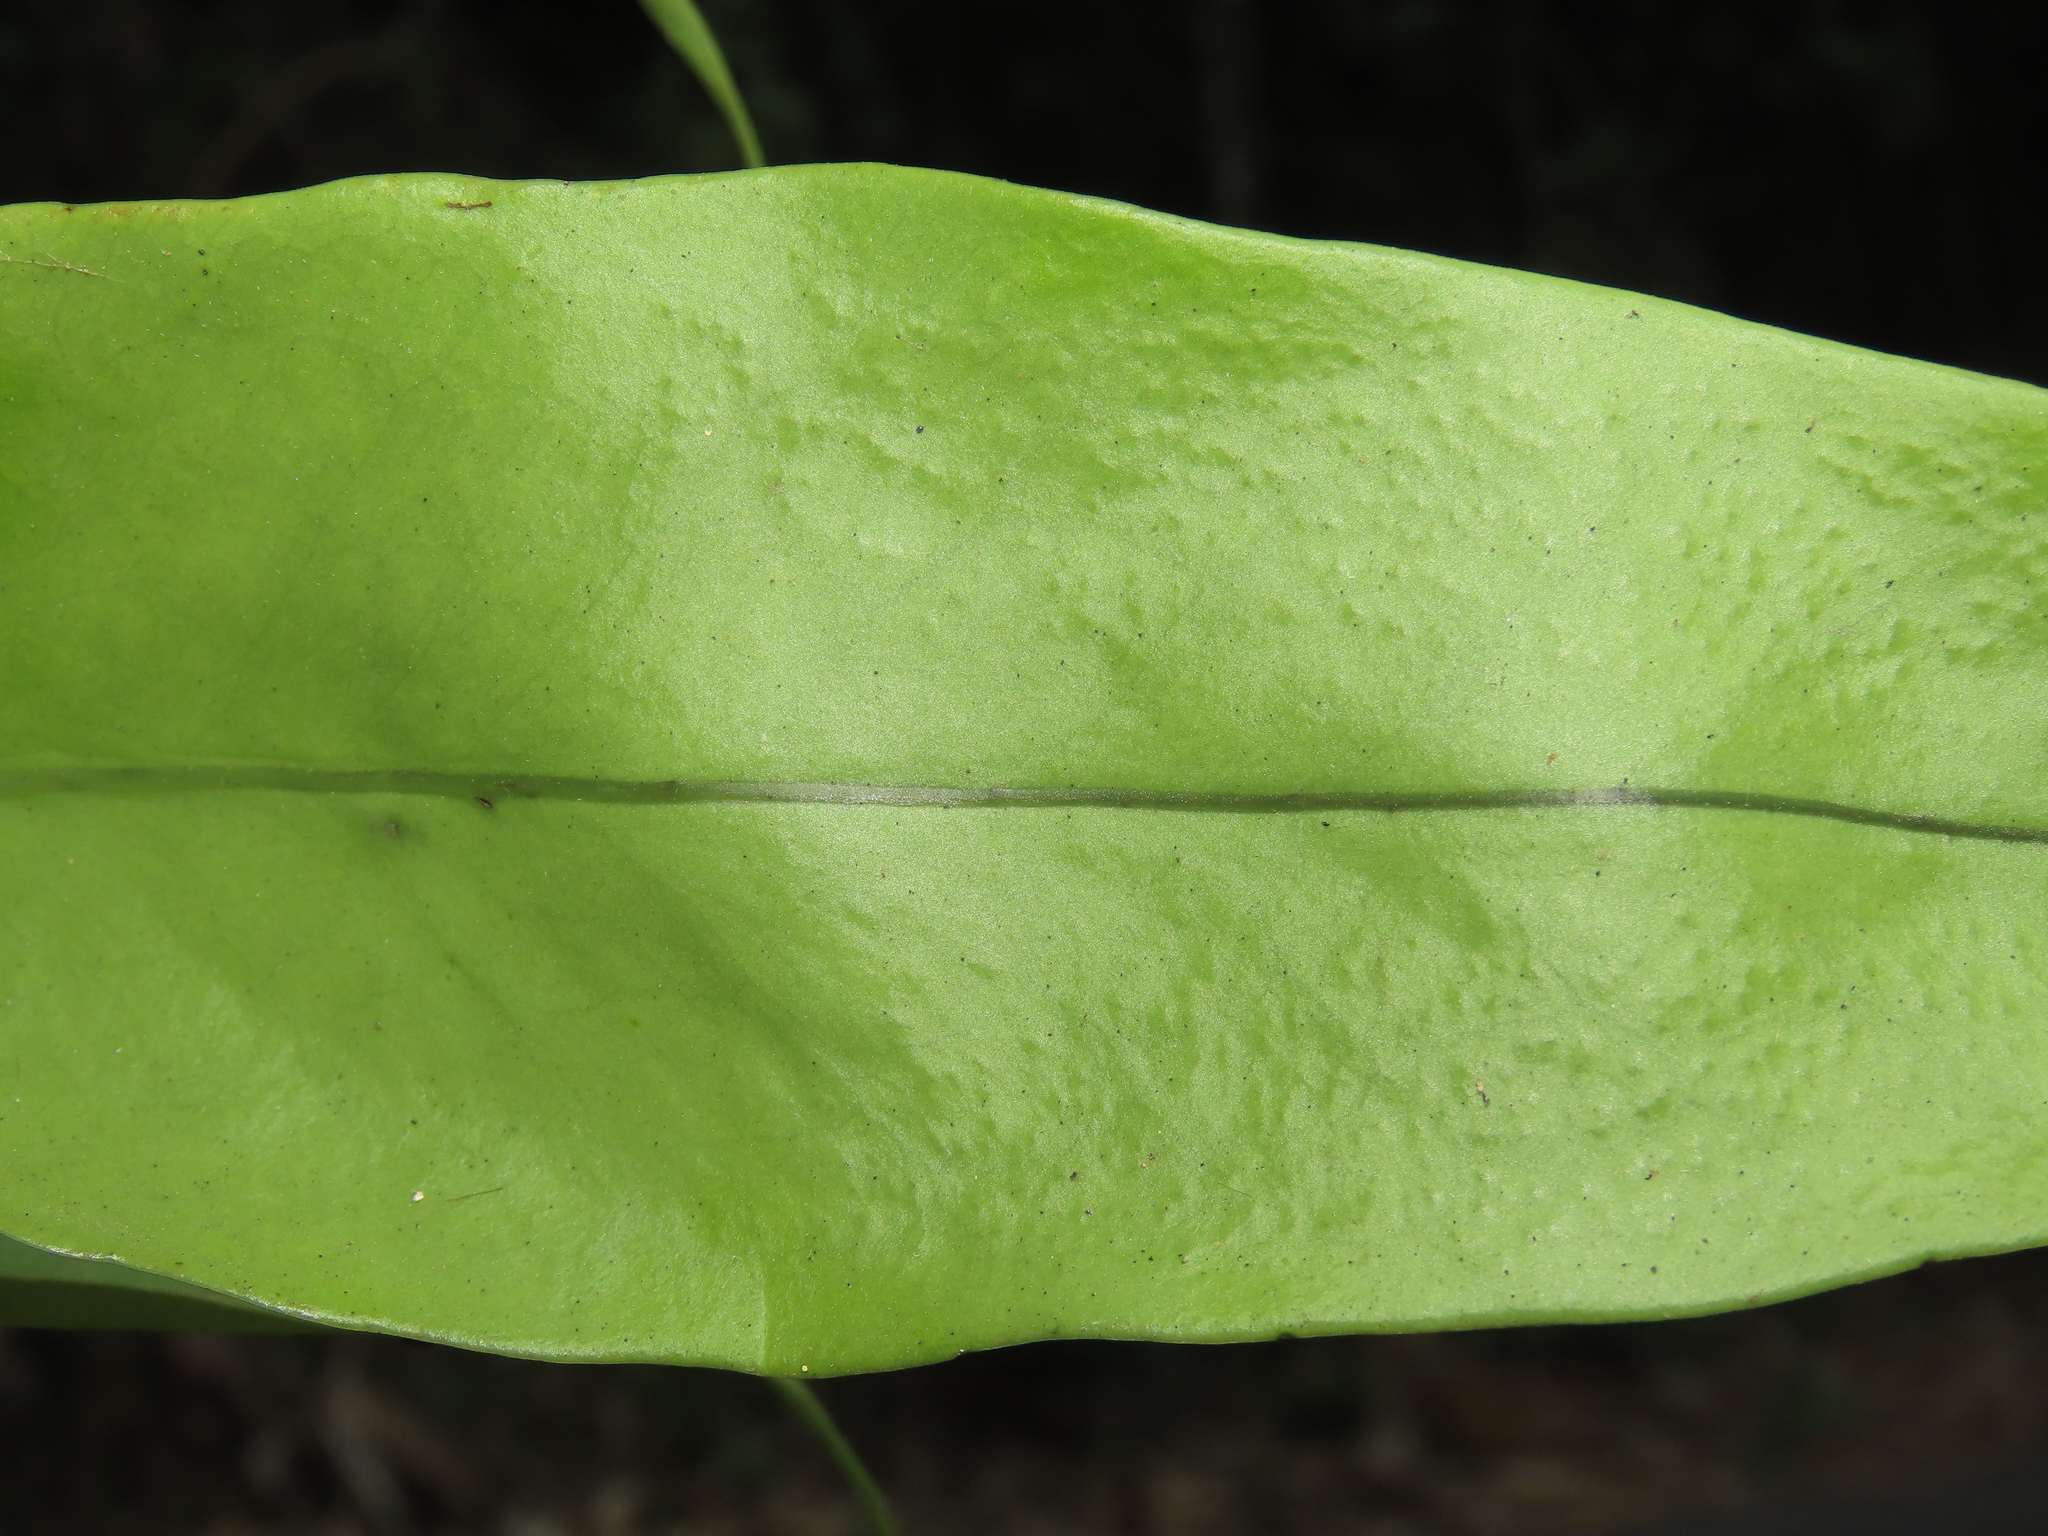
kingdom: Plantae
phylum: Tracheophyta
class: Polypodiopsida
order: Polypodiales
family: Polypodiaceae
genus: Microsorum
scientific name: Microsorum punctatum
